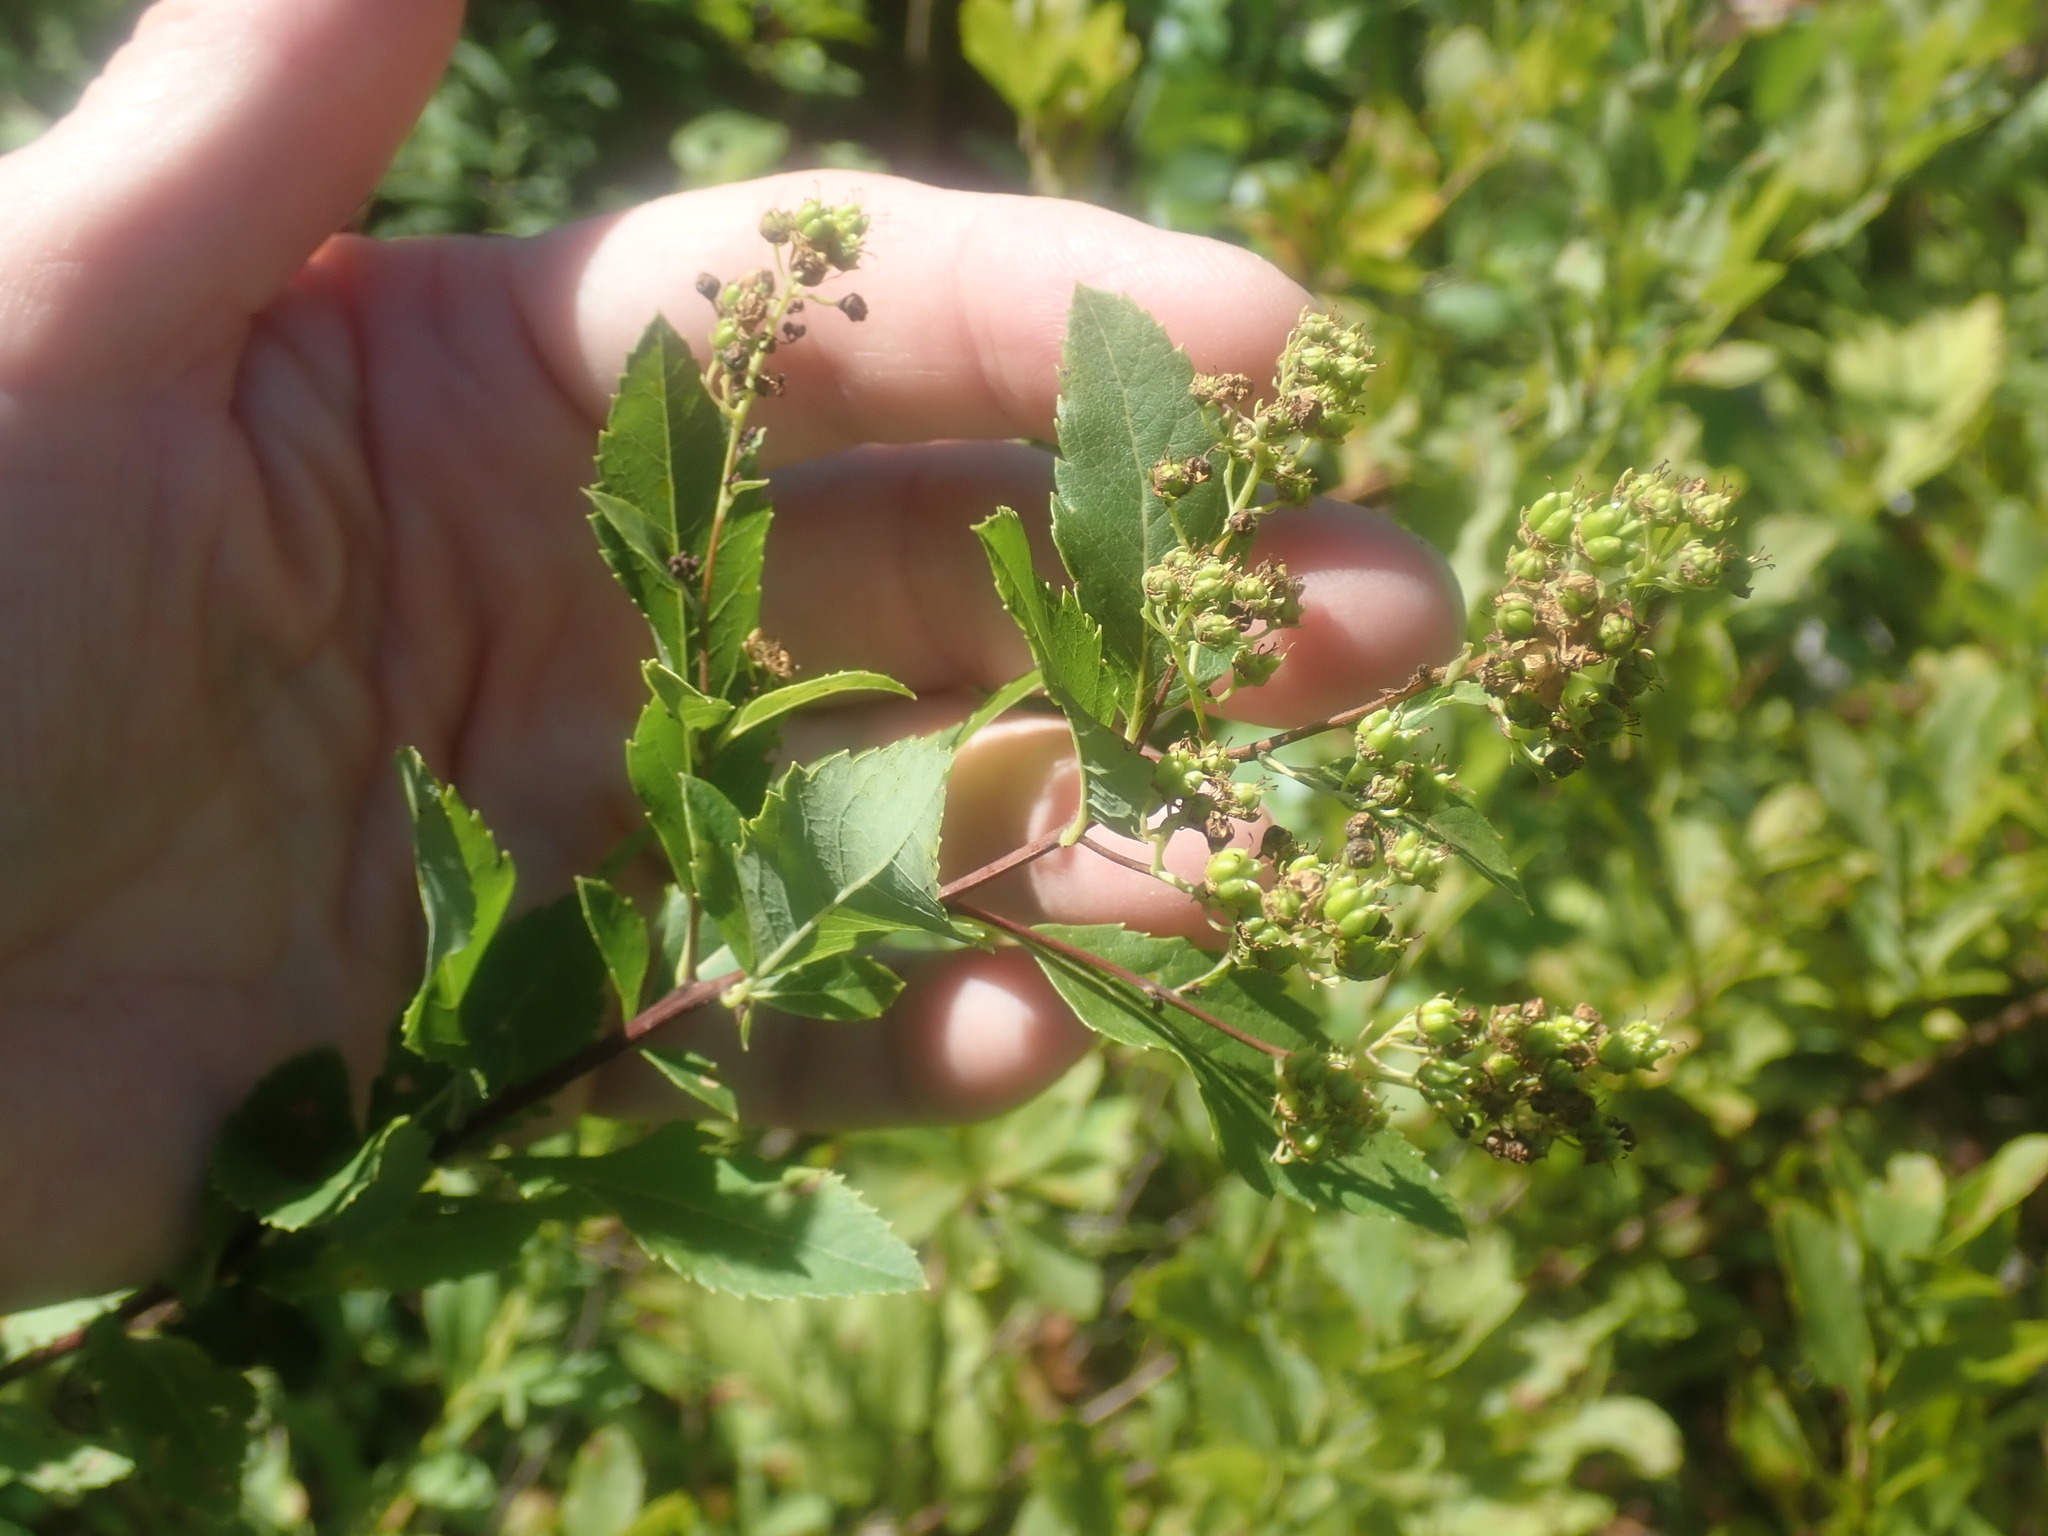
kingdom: Plantae
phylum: Tracheophyta
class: Magnoliopsida
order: Rosales
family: Rosaceae
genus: Spiraea
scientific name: Spiraea alba
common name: Pale bridewort
